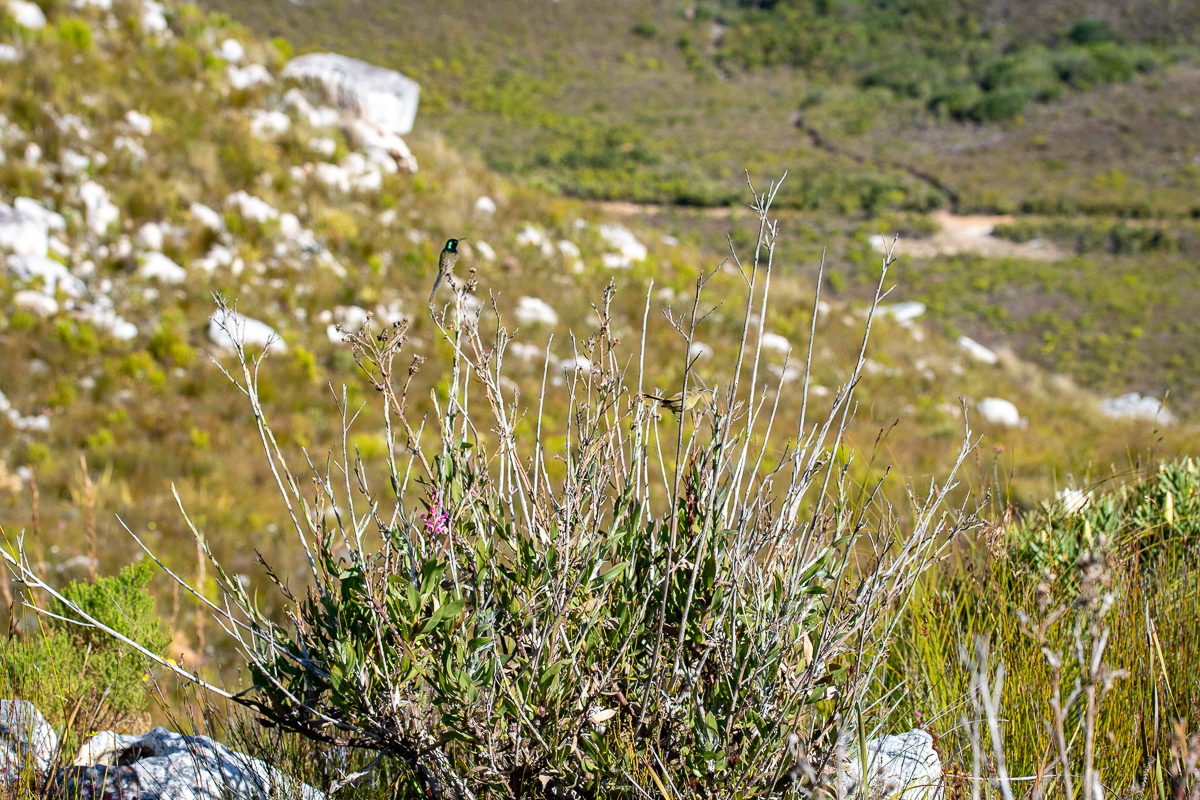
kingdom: Plantae
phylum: Tracheophyta
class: Magnoliopsida
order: Asterales
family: Asteraceae
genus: Osteospermum
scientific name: Osteospermum junceum
